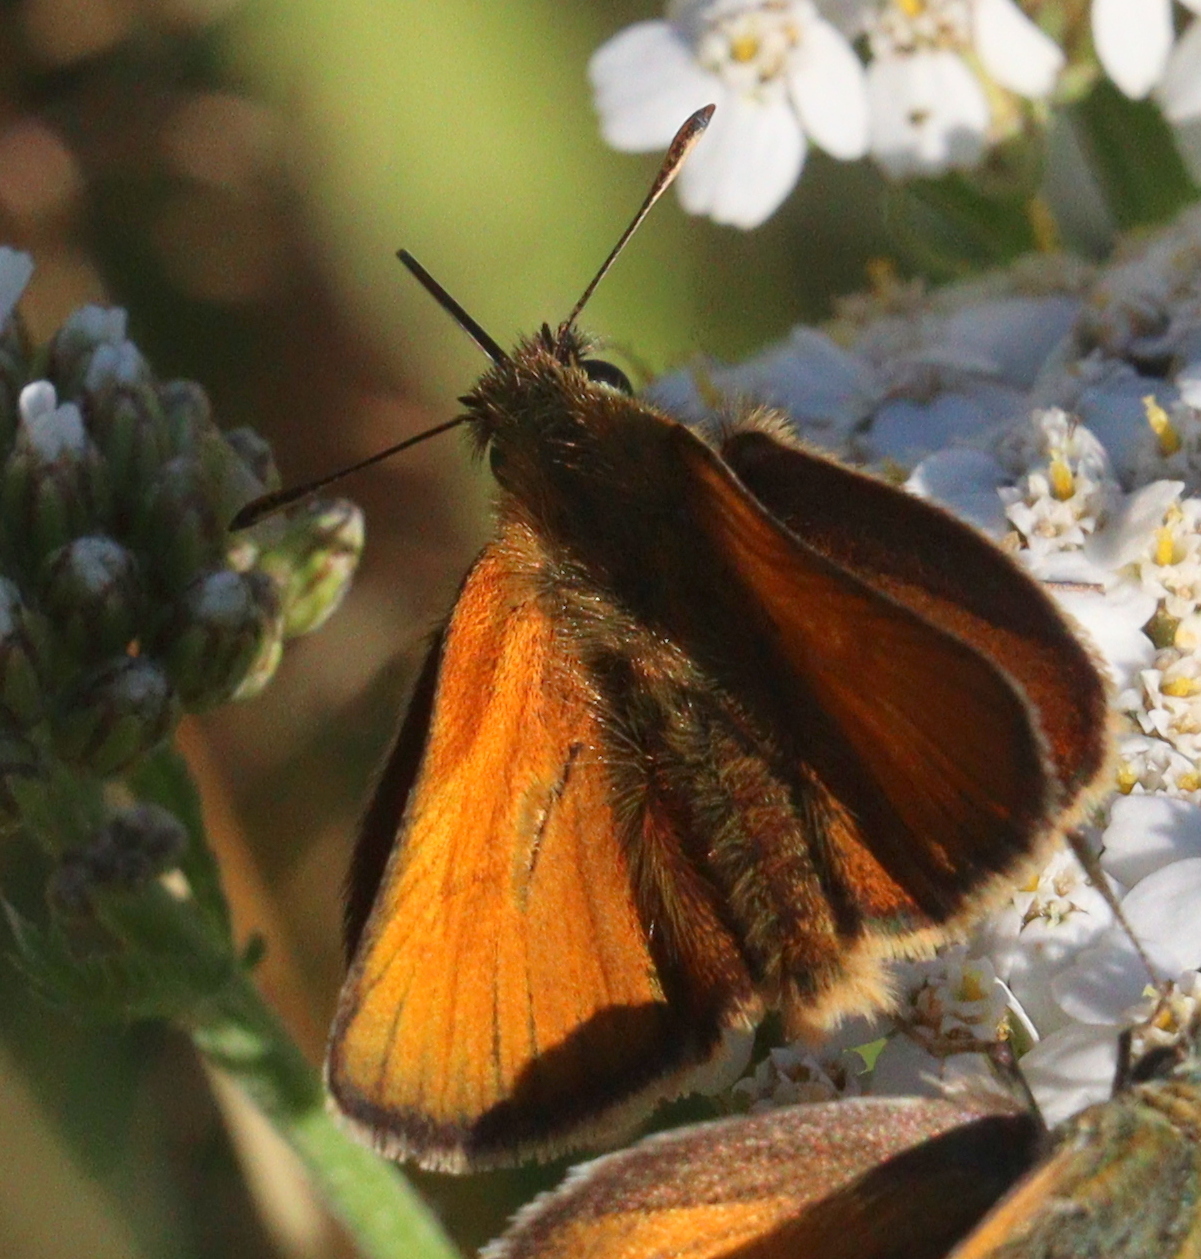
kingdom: Animalia
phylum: Arthropoda
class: Insecta
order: Lepidoptera
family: Hesperiidae
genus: Thymelicus
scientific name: Thymelicus sylvestris
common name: Small skipper
